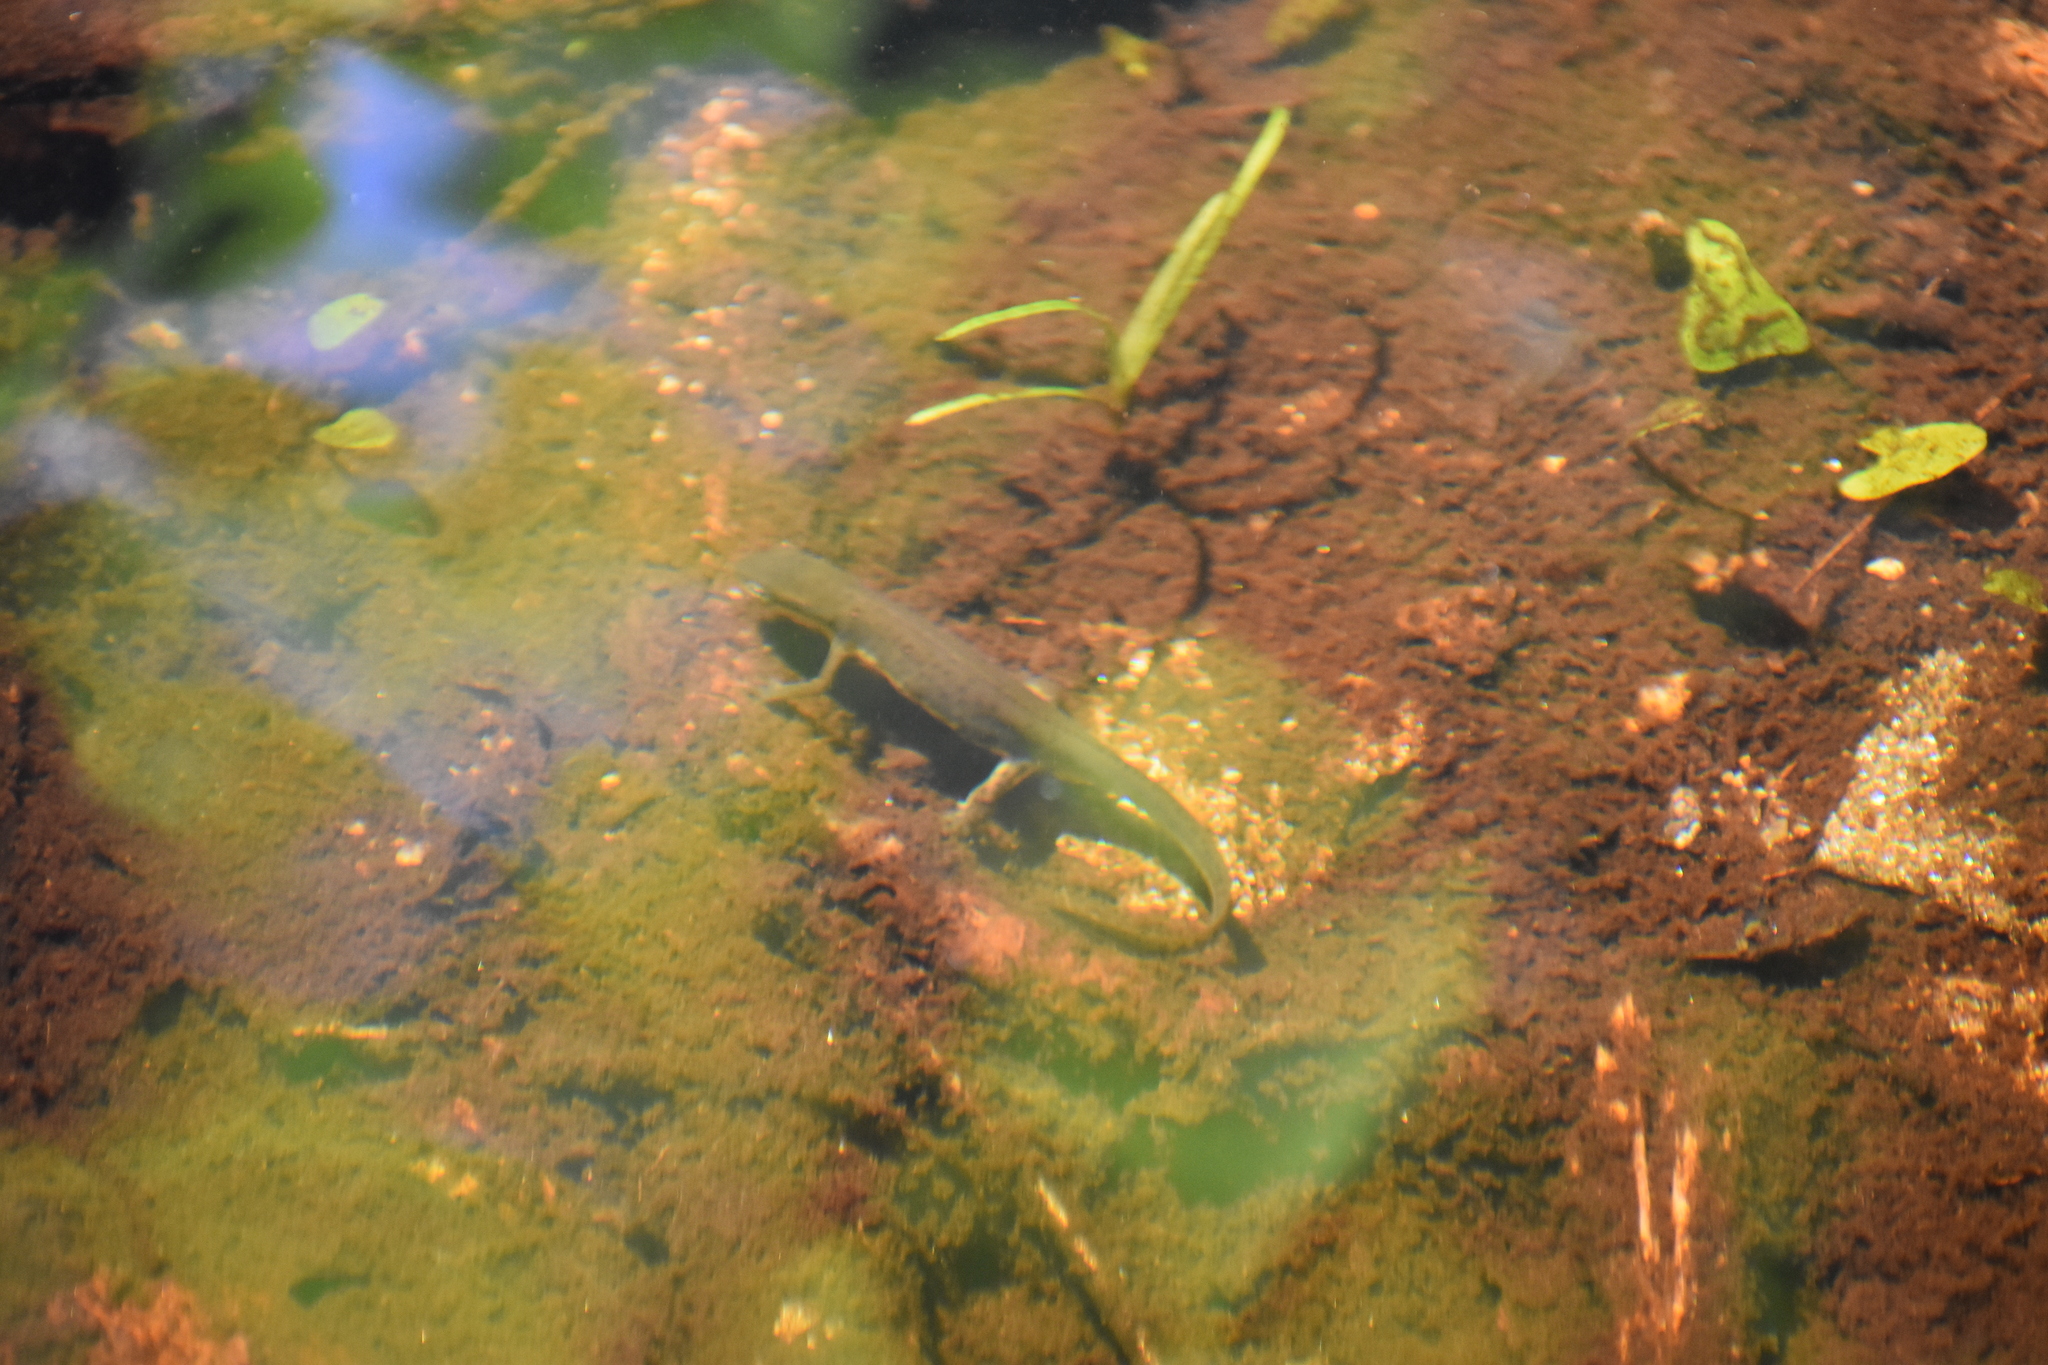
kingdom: Animalia
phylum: Chordata
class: Amphibia
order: Caudata
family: Salamandridae
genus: Notophthalmus
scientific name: Notophthalmus viridescens
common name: Eastern newt
